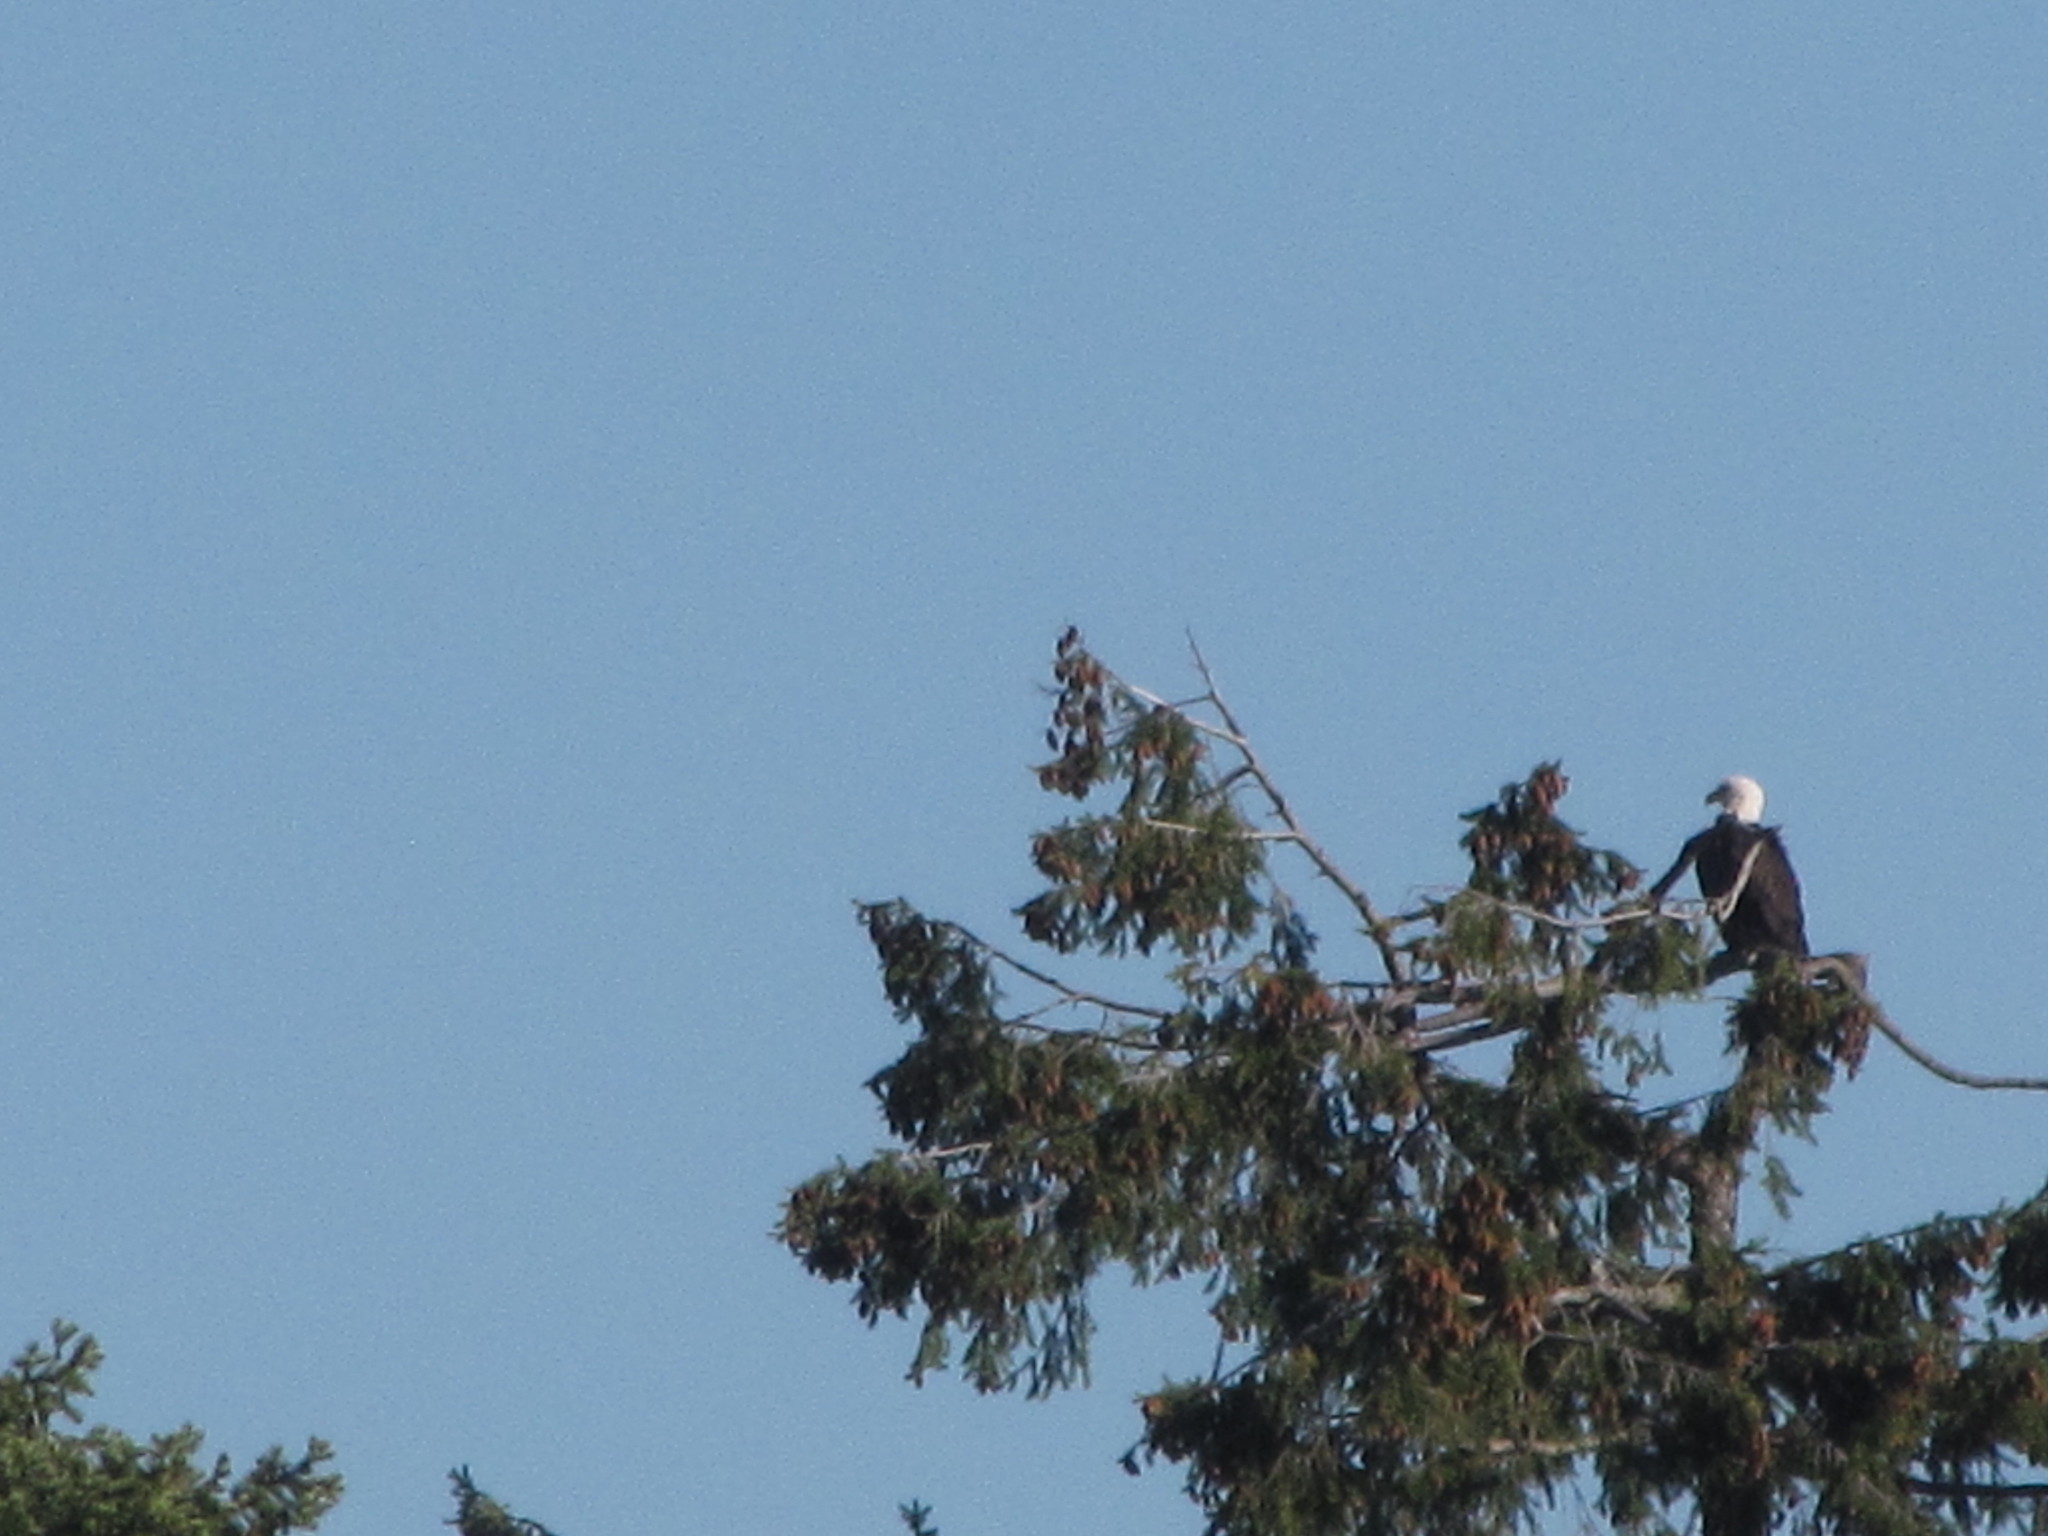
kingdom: Animalia
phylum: Chordata
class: Aves
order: Accipitriformes
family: Accipitridae
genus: Haliaeetus
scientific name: Haliaeetus leucocephalus
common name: Bald eagle
